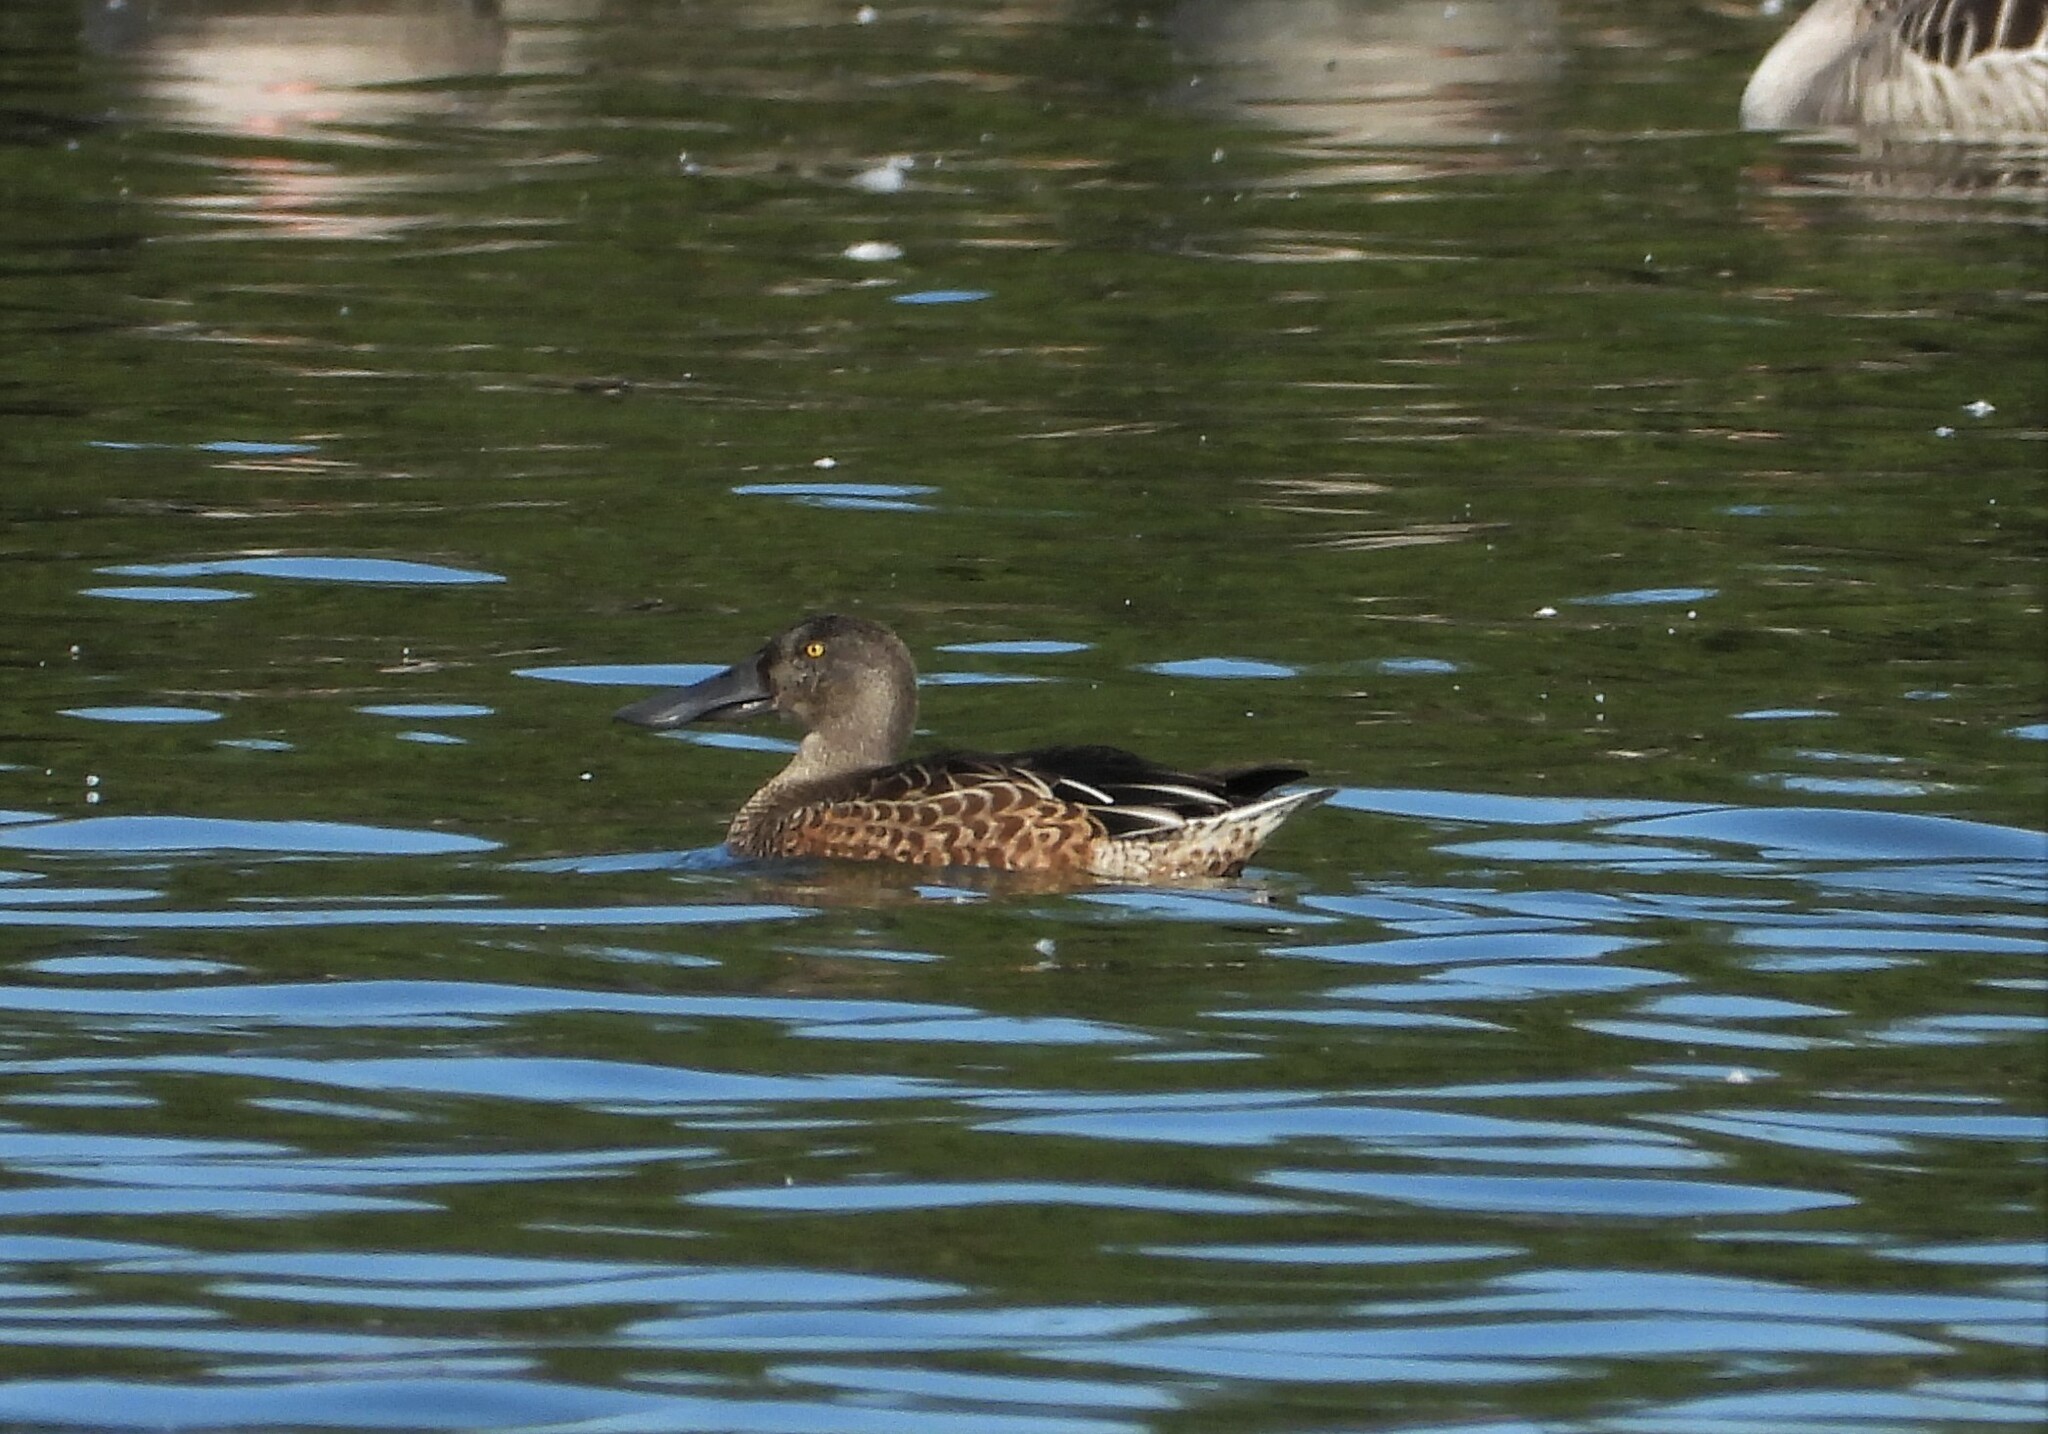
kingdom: Animalia
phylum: Chordata
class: Aves
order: Anseriformes
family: Anatidae
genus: Spatula
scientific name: Spatula clypeata
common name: Northern shoveler
